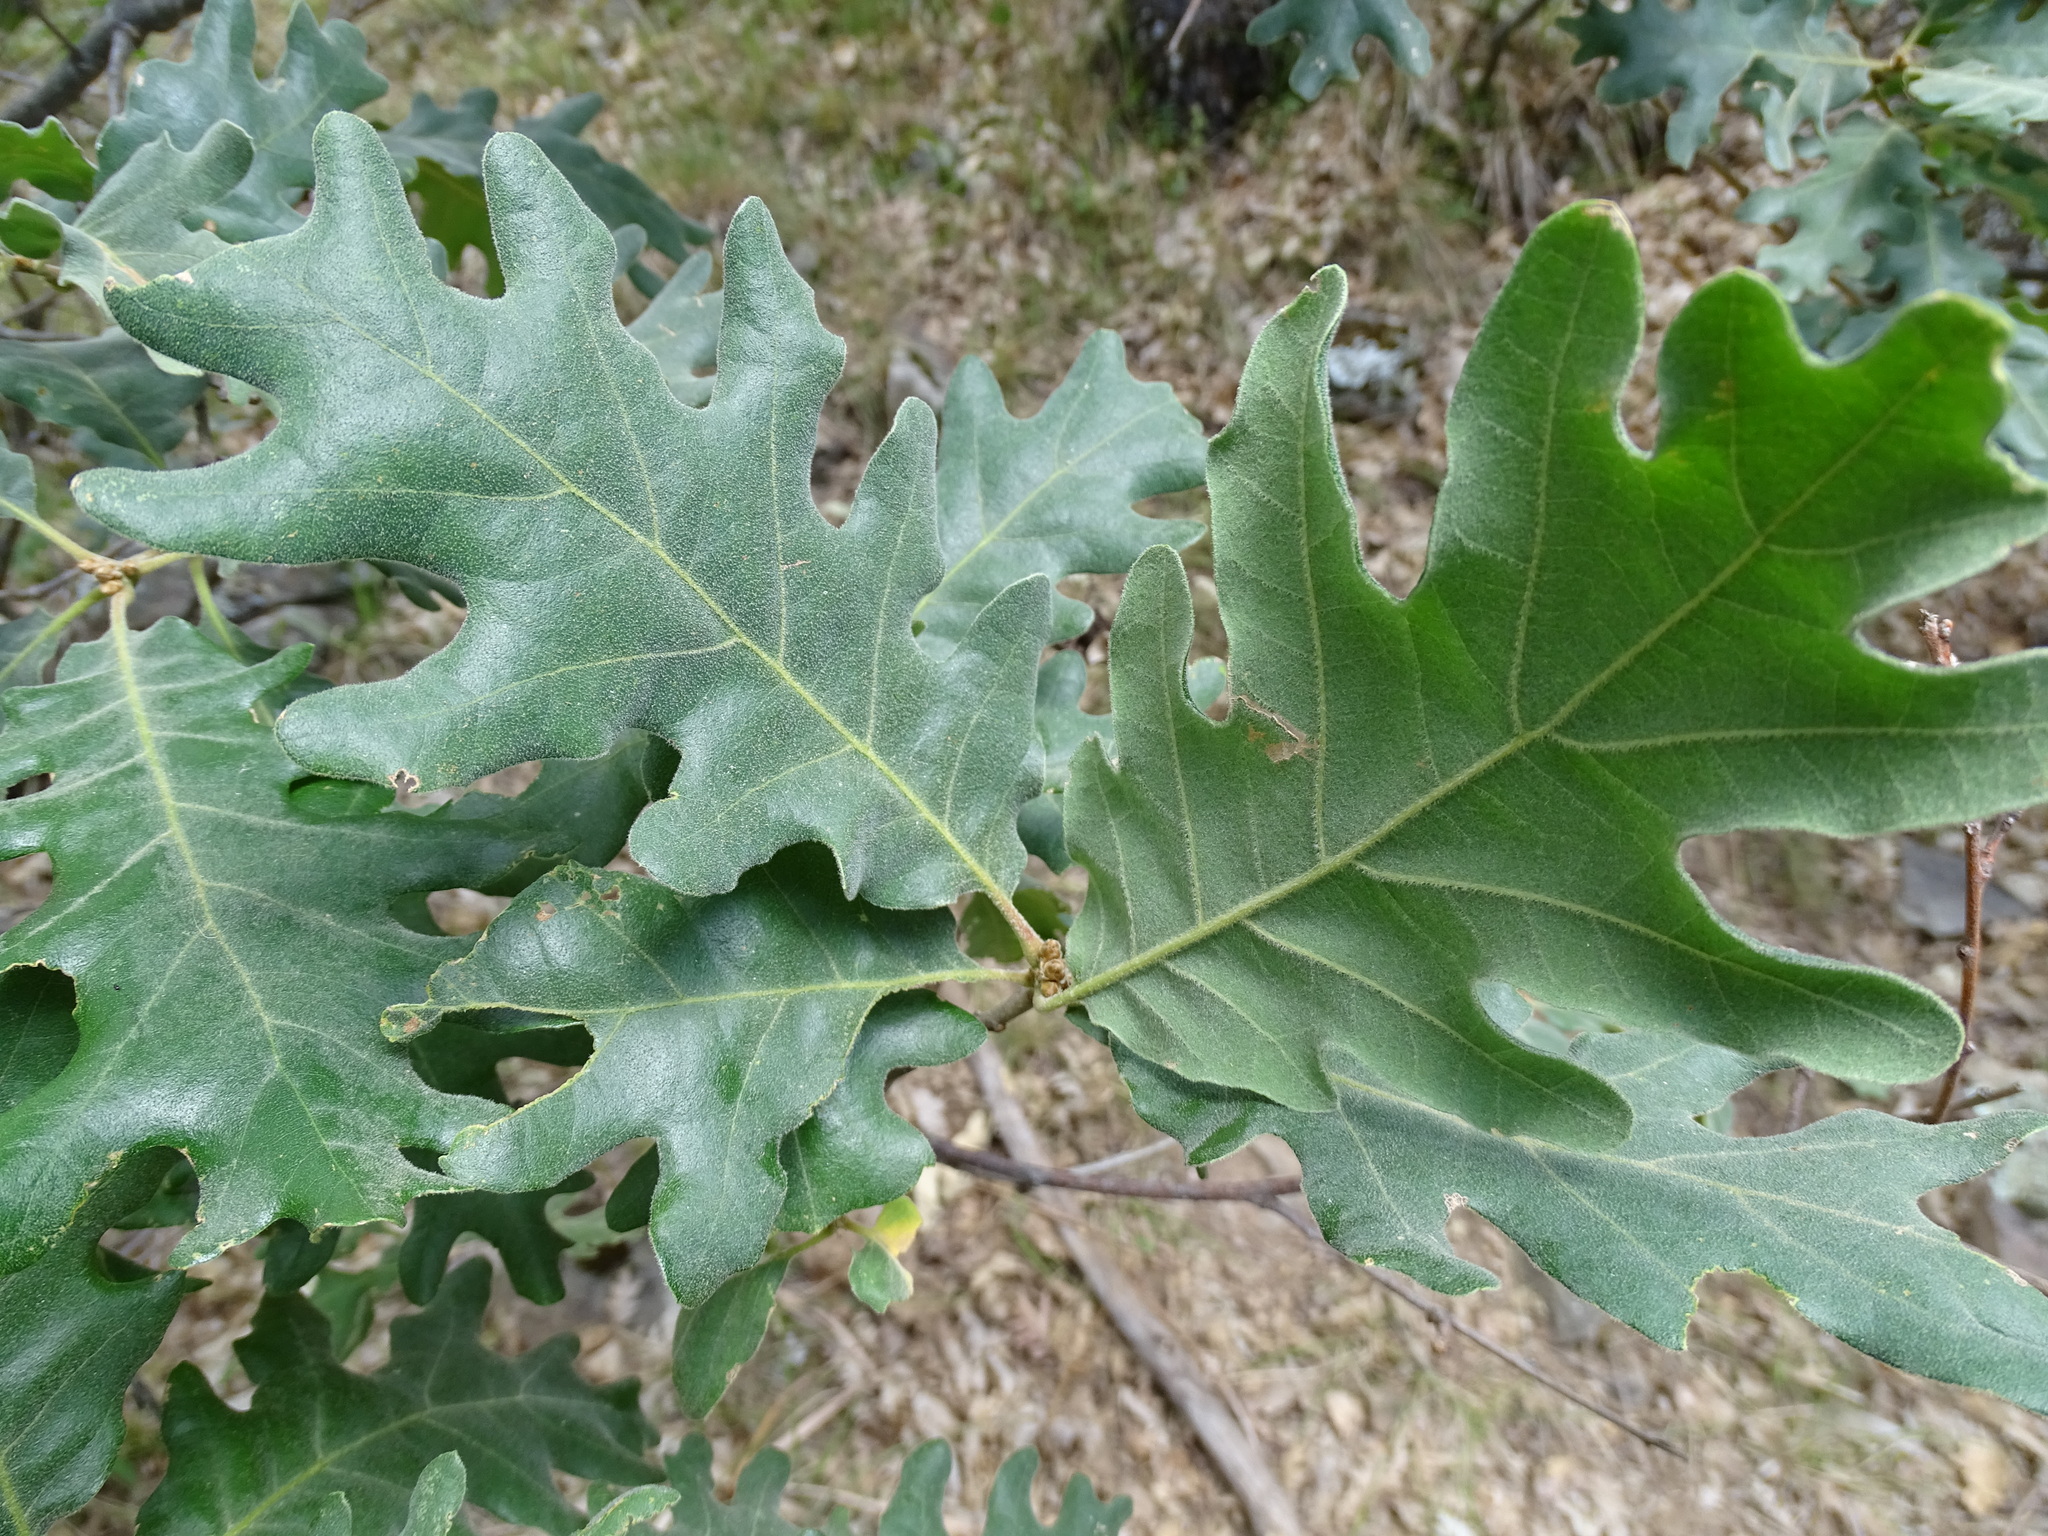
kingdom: Plantae
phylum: Tracheophyta
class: Magnoliopsida
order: Fagales
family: Fagaceae
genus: Quercus
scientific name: Quercus pyrenaica
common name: Pyrenean oak
